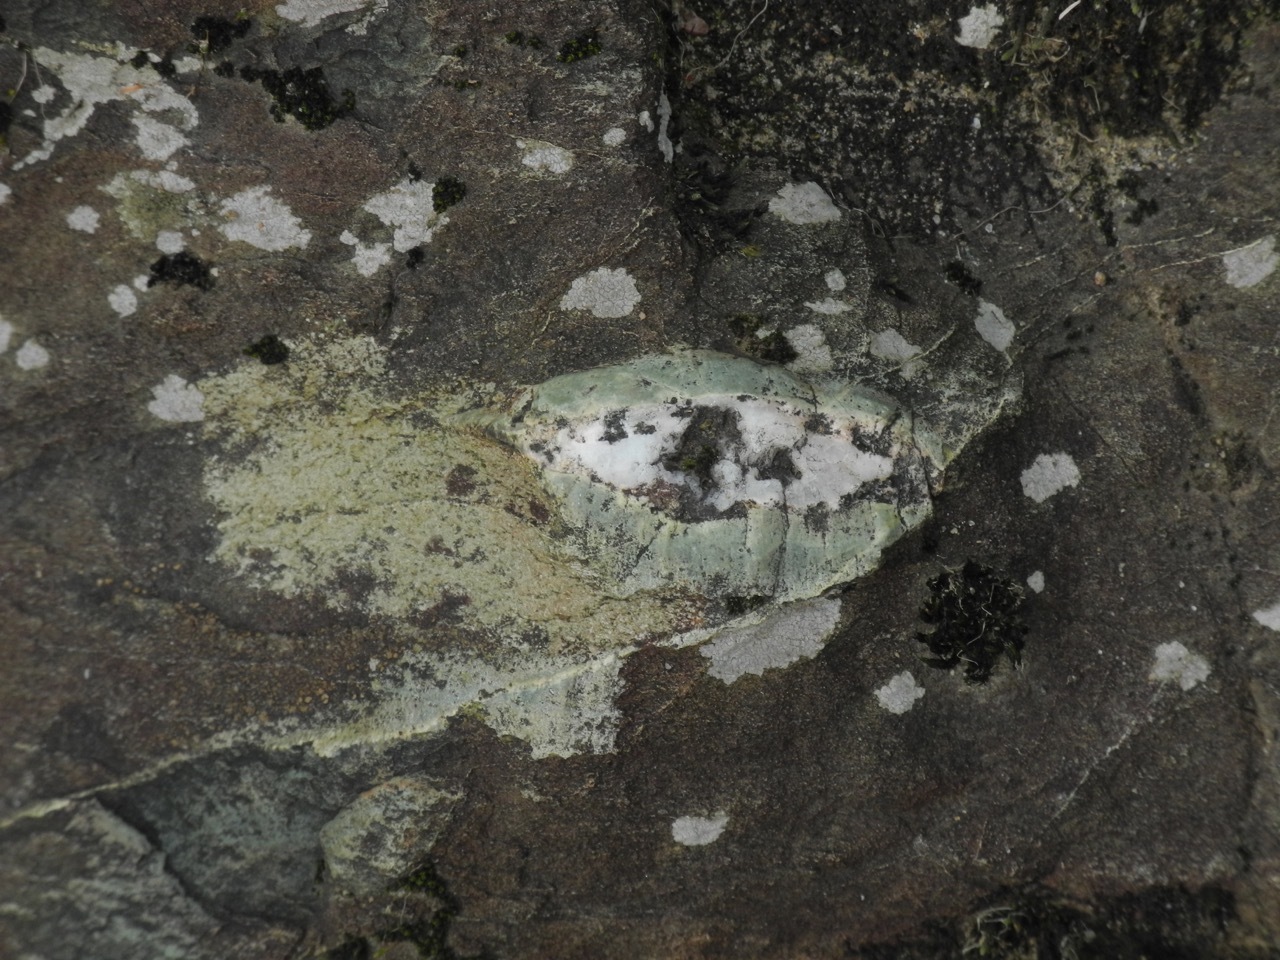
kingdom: Plantae
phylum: Tracheophyta
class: Polypodiopsida
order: Polypodiales
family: Polypodiaceae
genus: Pleopeltis
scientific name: Pleopeltis michauxiana
